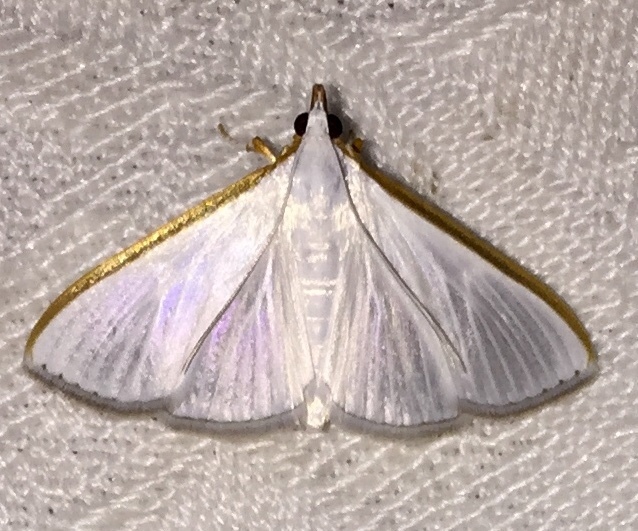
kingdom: Animalia
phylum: Arthropoda
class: Insecta
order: Lepidoptera
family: Crambidae
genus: Diaphania
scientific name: Diaphania costata
